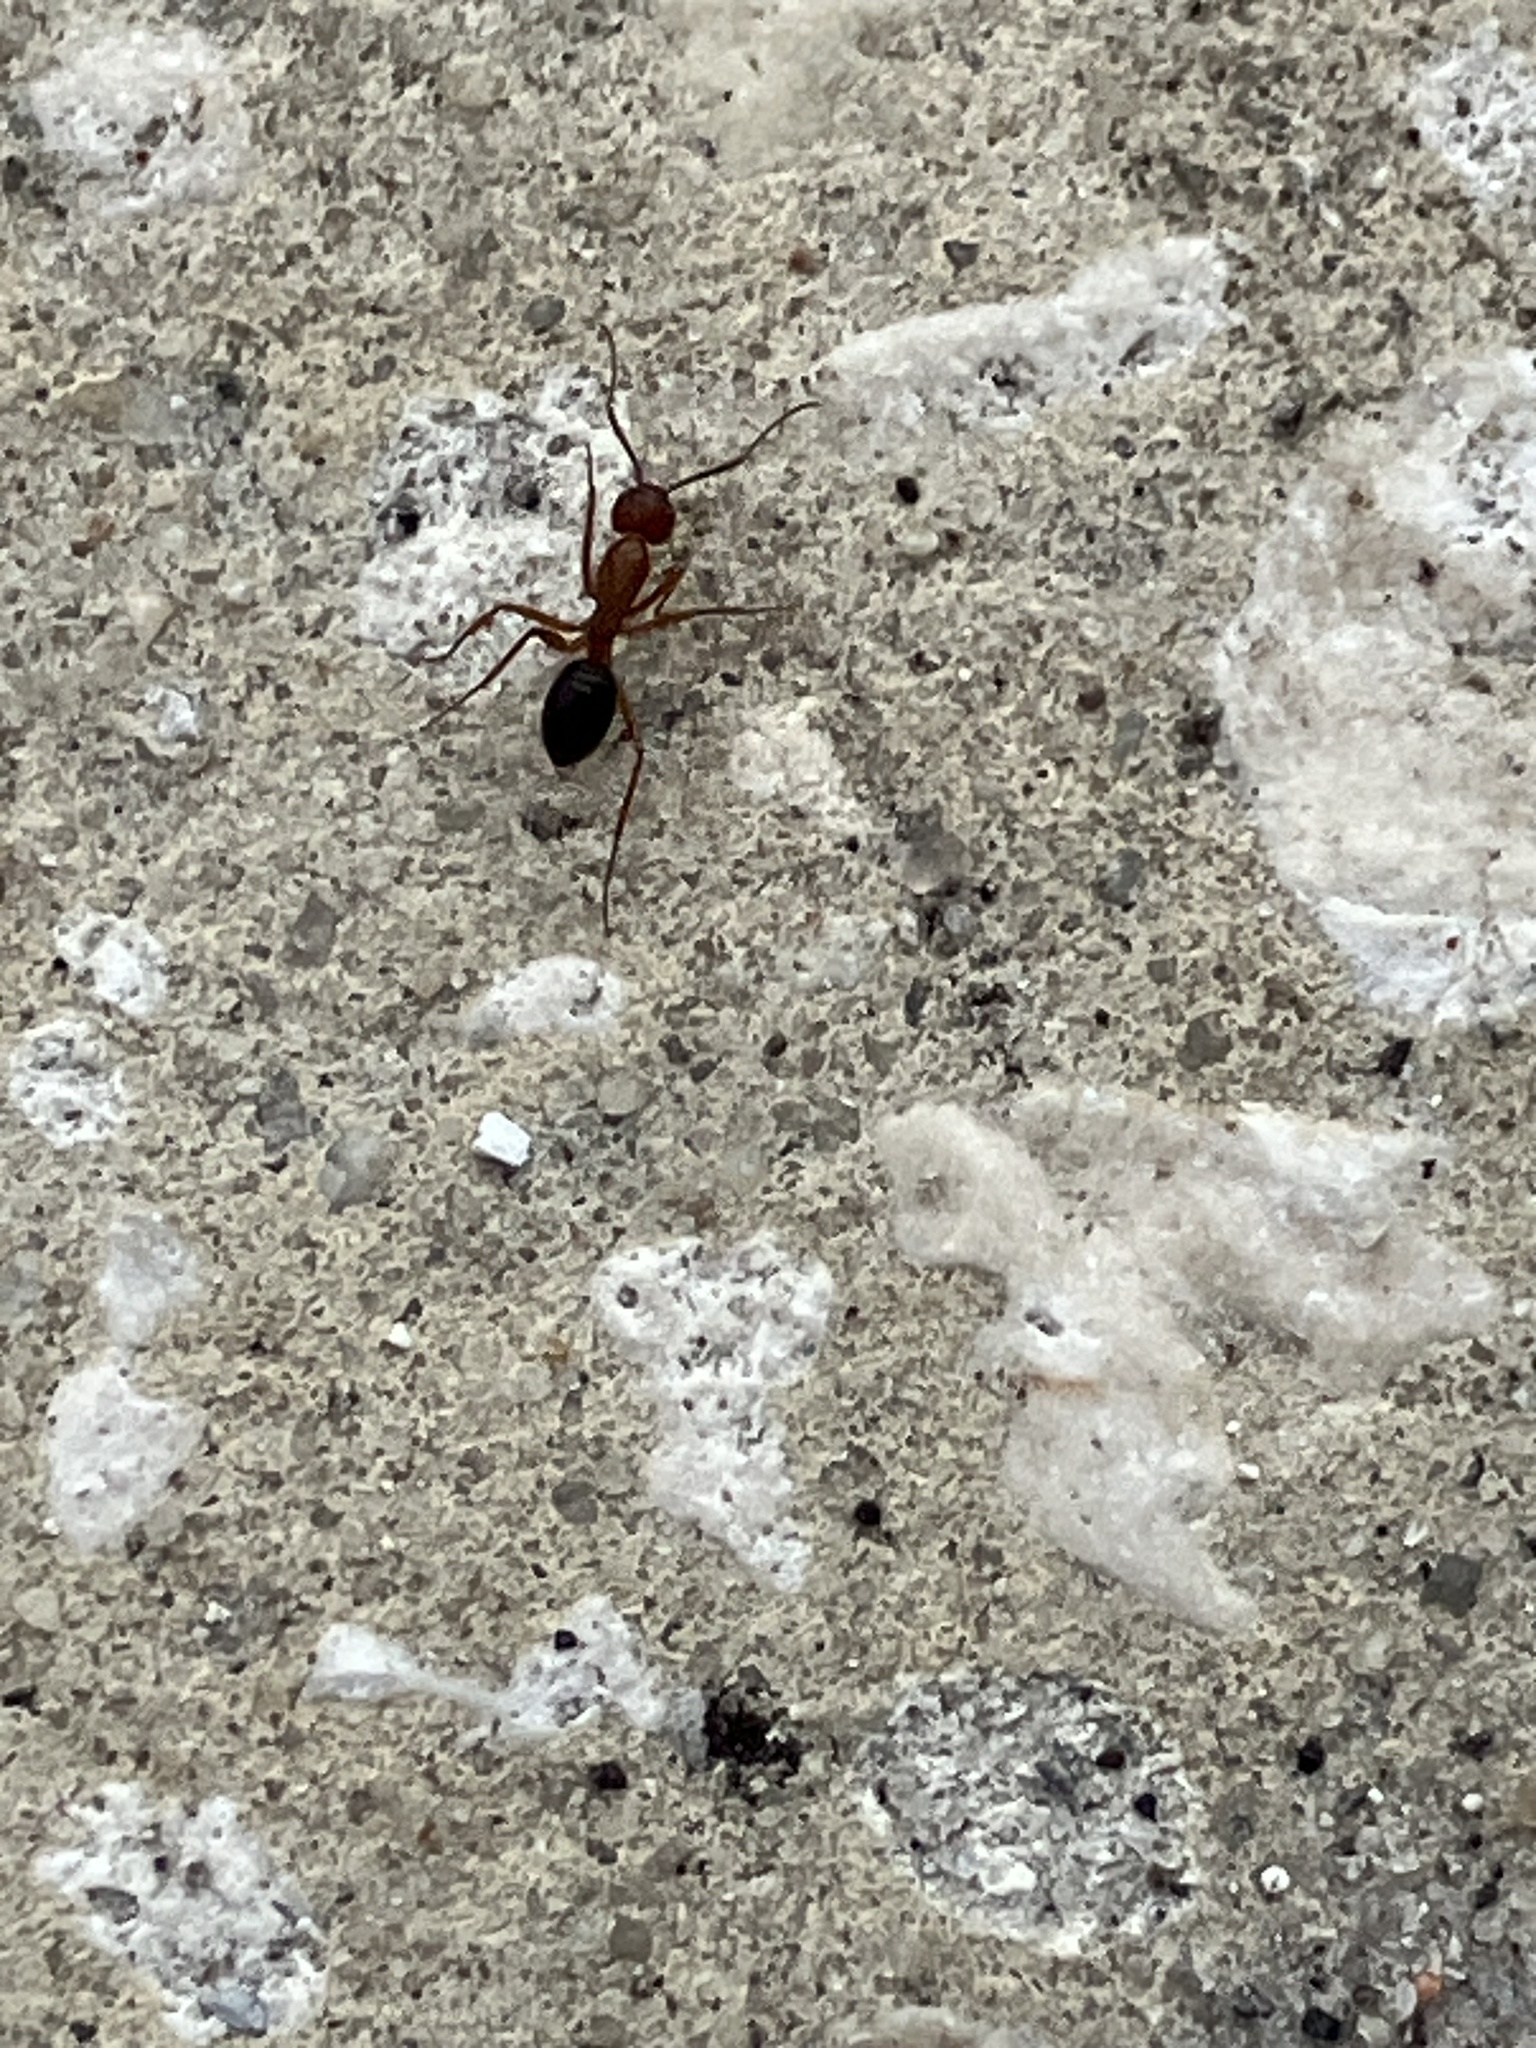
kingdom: Animalia
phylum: Arthropoda
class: Insecta
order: Hymenoptera
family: Formicidae
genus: Camponotus
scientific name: Camponotus floridanus
